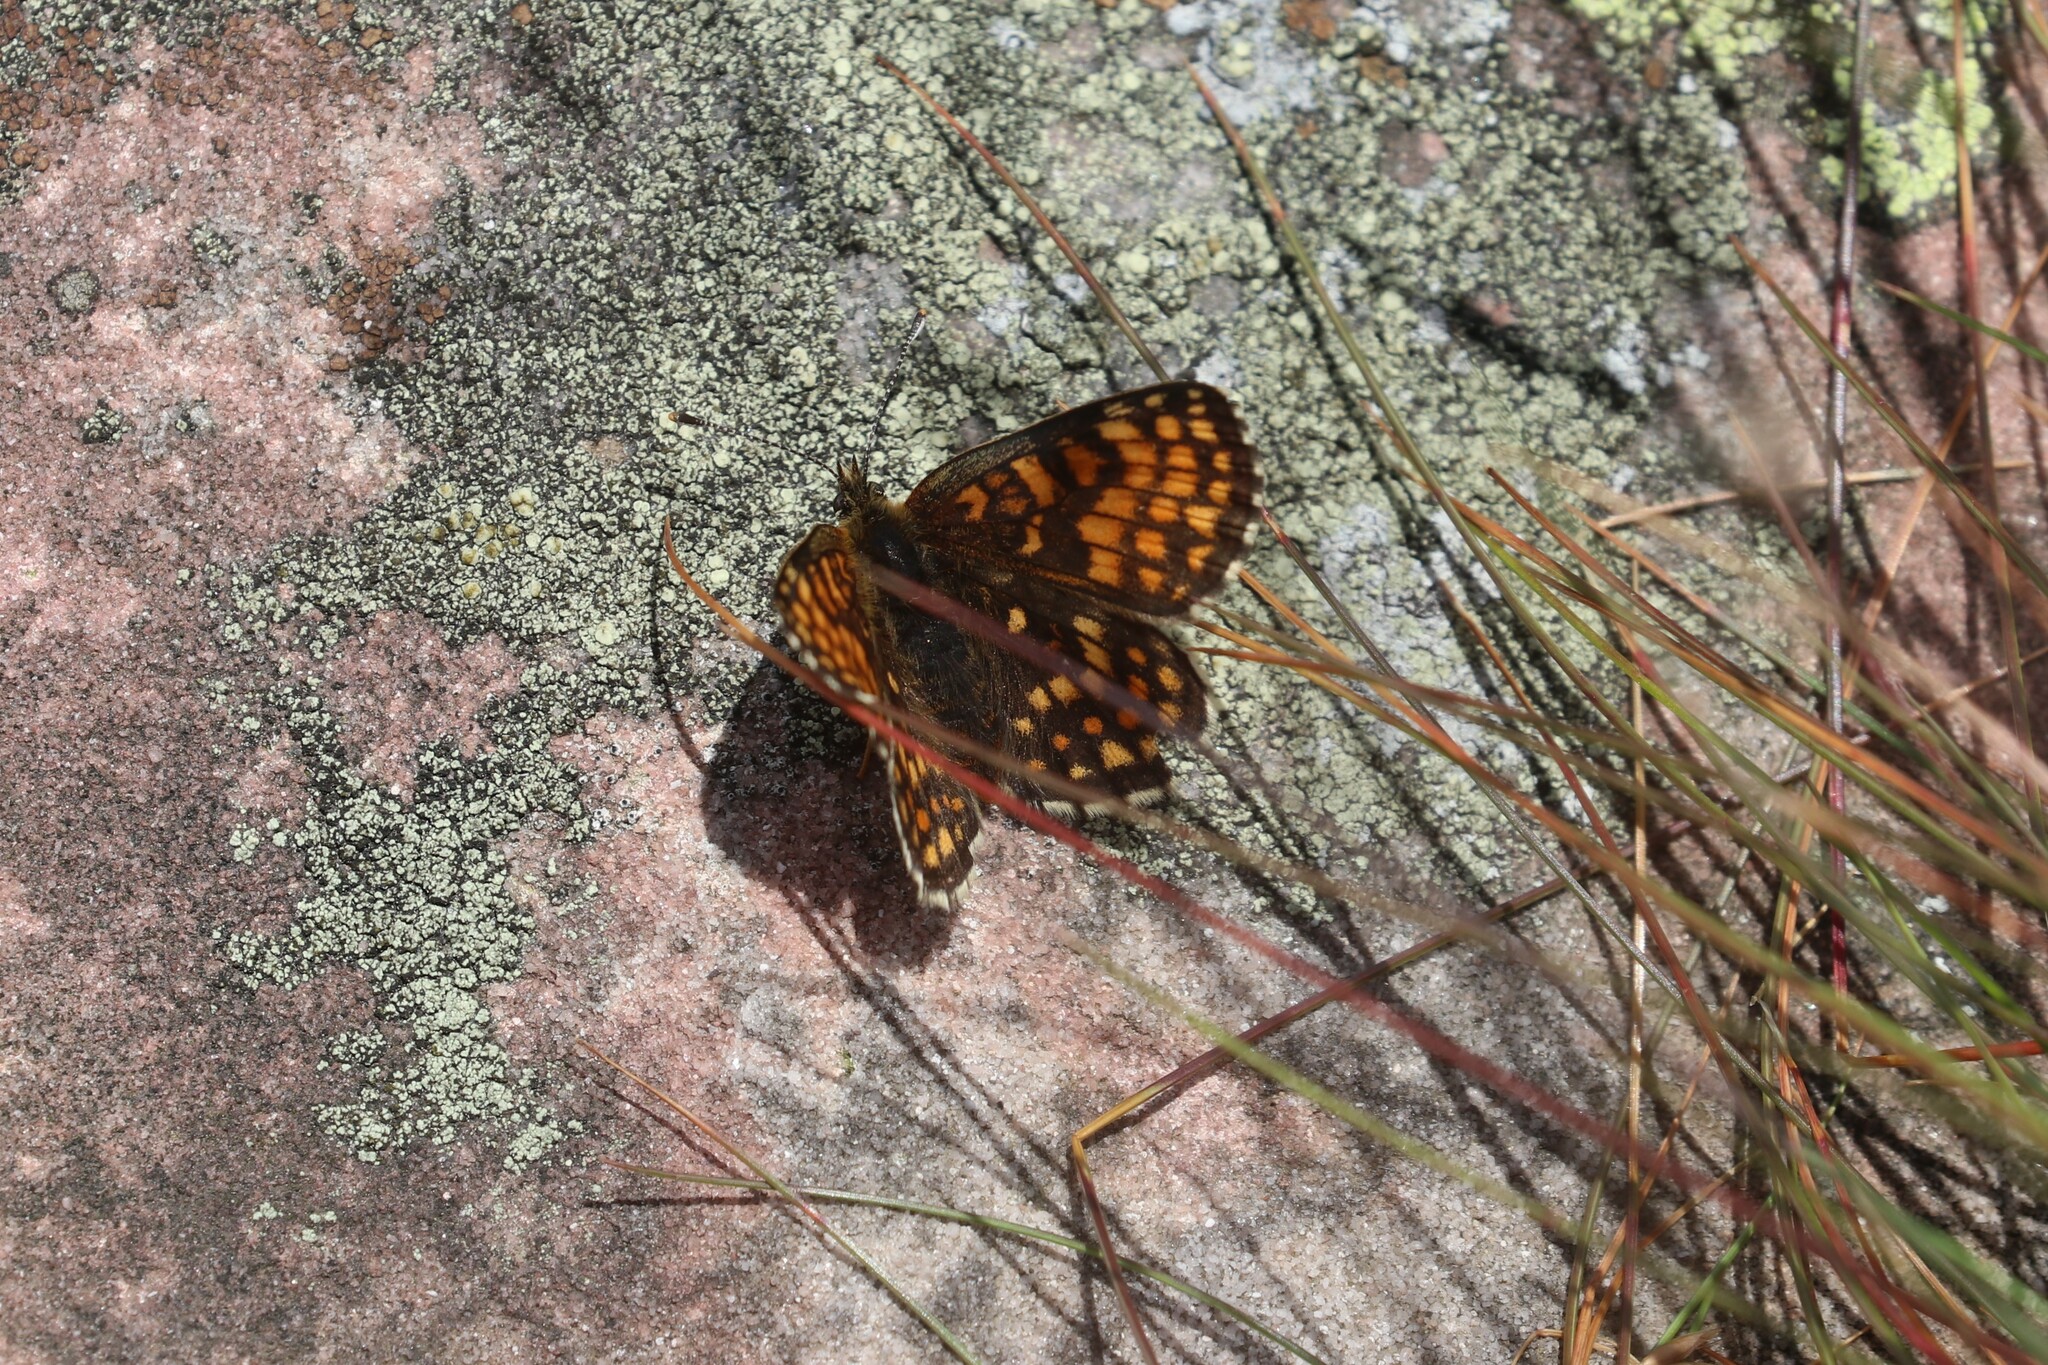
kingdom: Animalia
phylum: Arthropoda
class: Insecta
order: Lepidoptera
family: Nymphalidae
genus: Melitaea
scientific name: Melitaea diamina
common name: False heath fritillary
